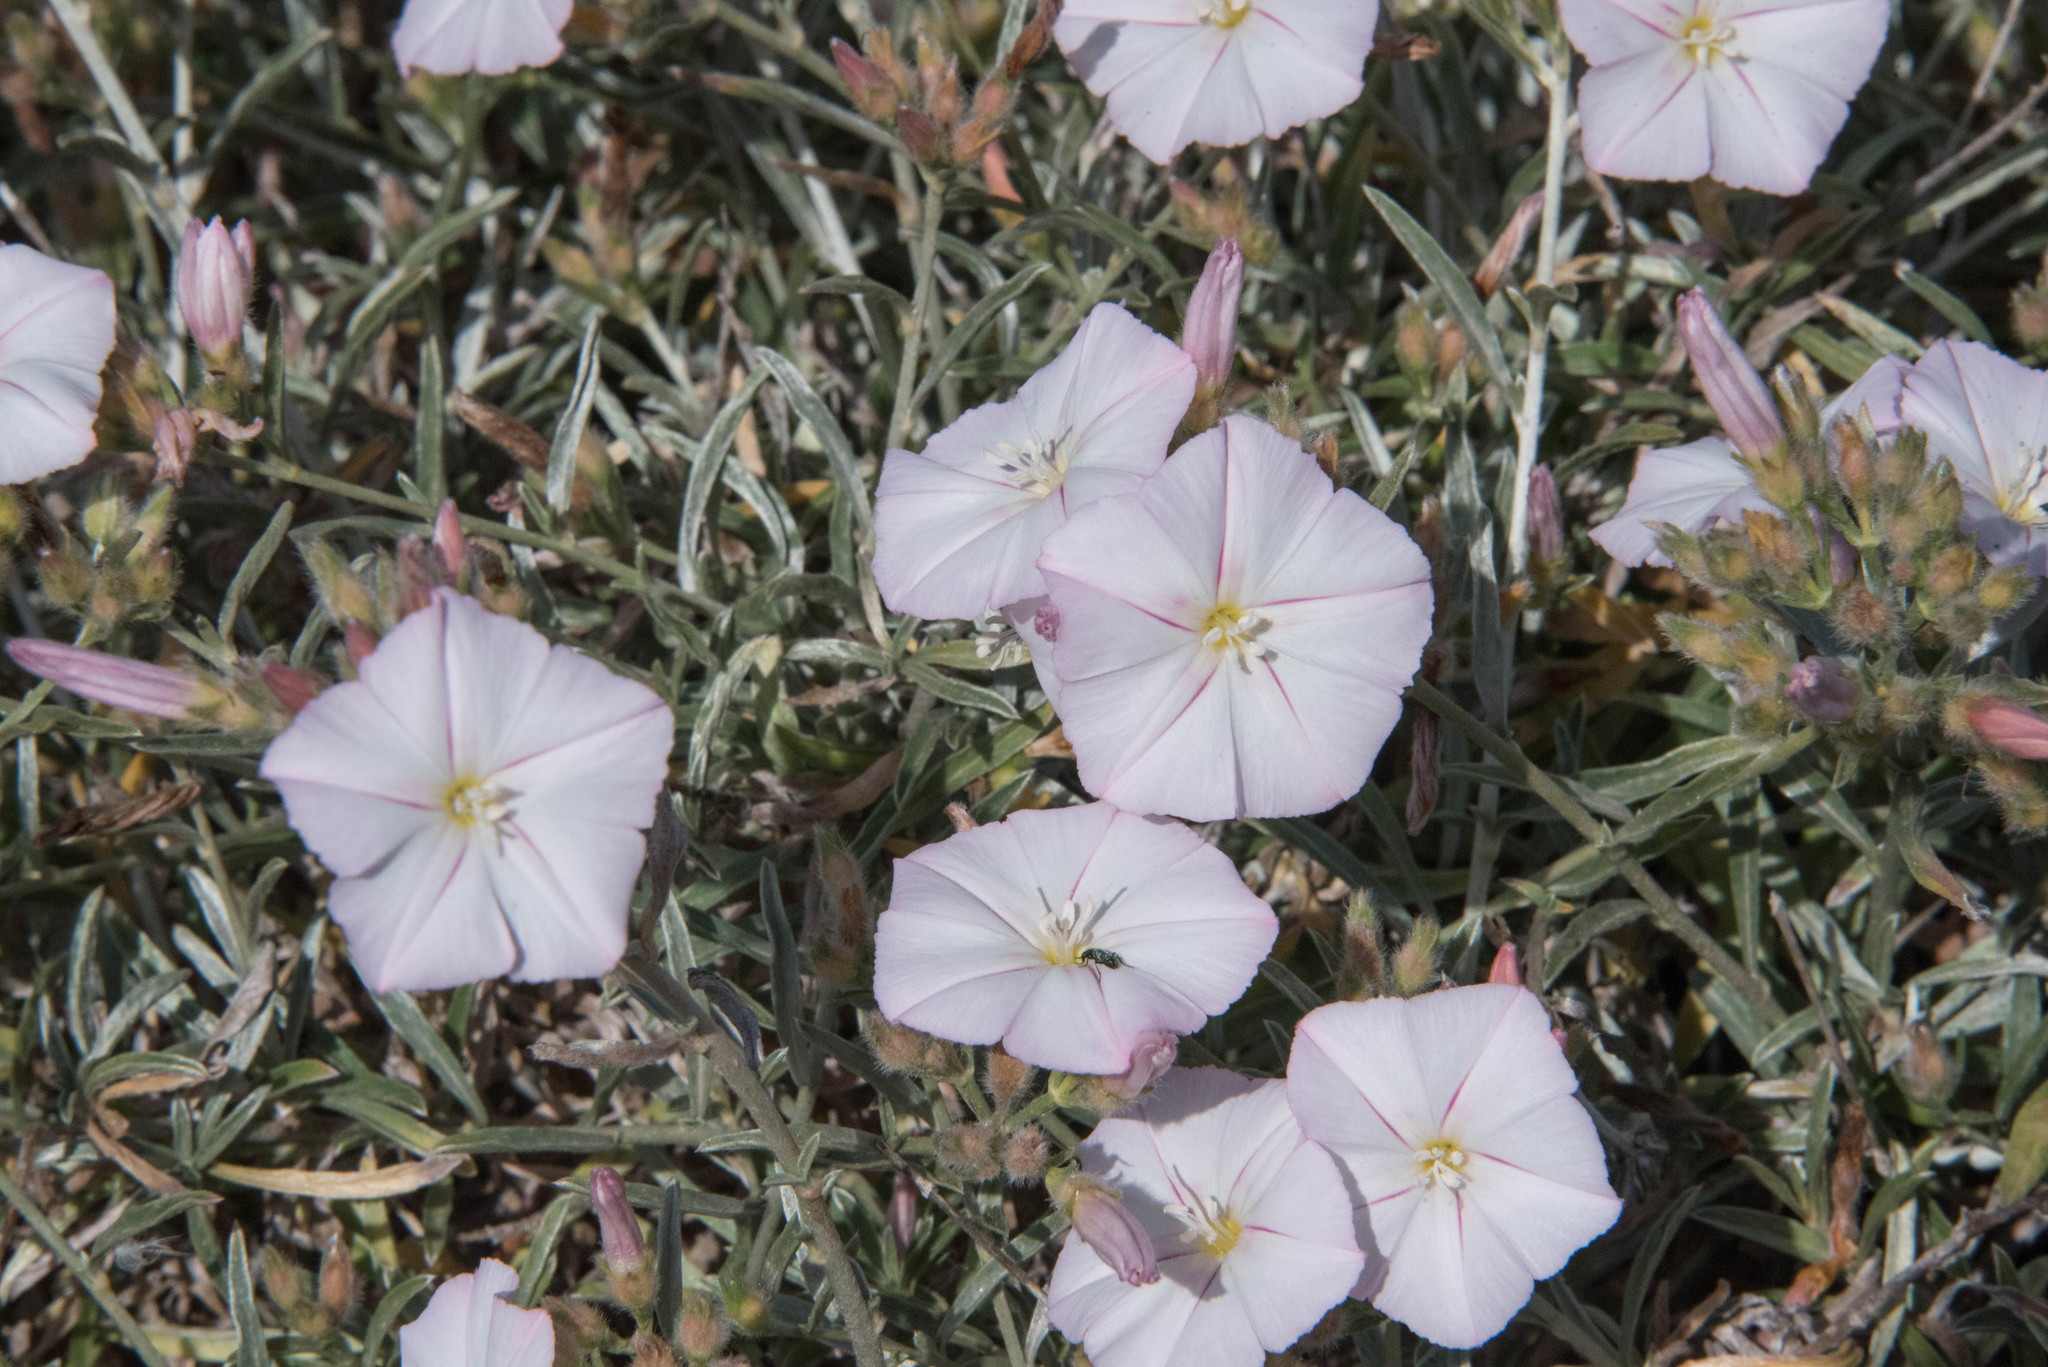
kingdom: Plantae
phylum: Tracheophyta
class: Magnoliopsida
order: Solanales
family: Convolvulaceae
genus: Convolvulus
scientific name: Convolvulus oleifolius
